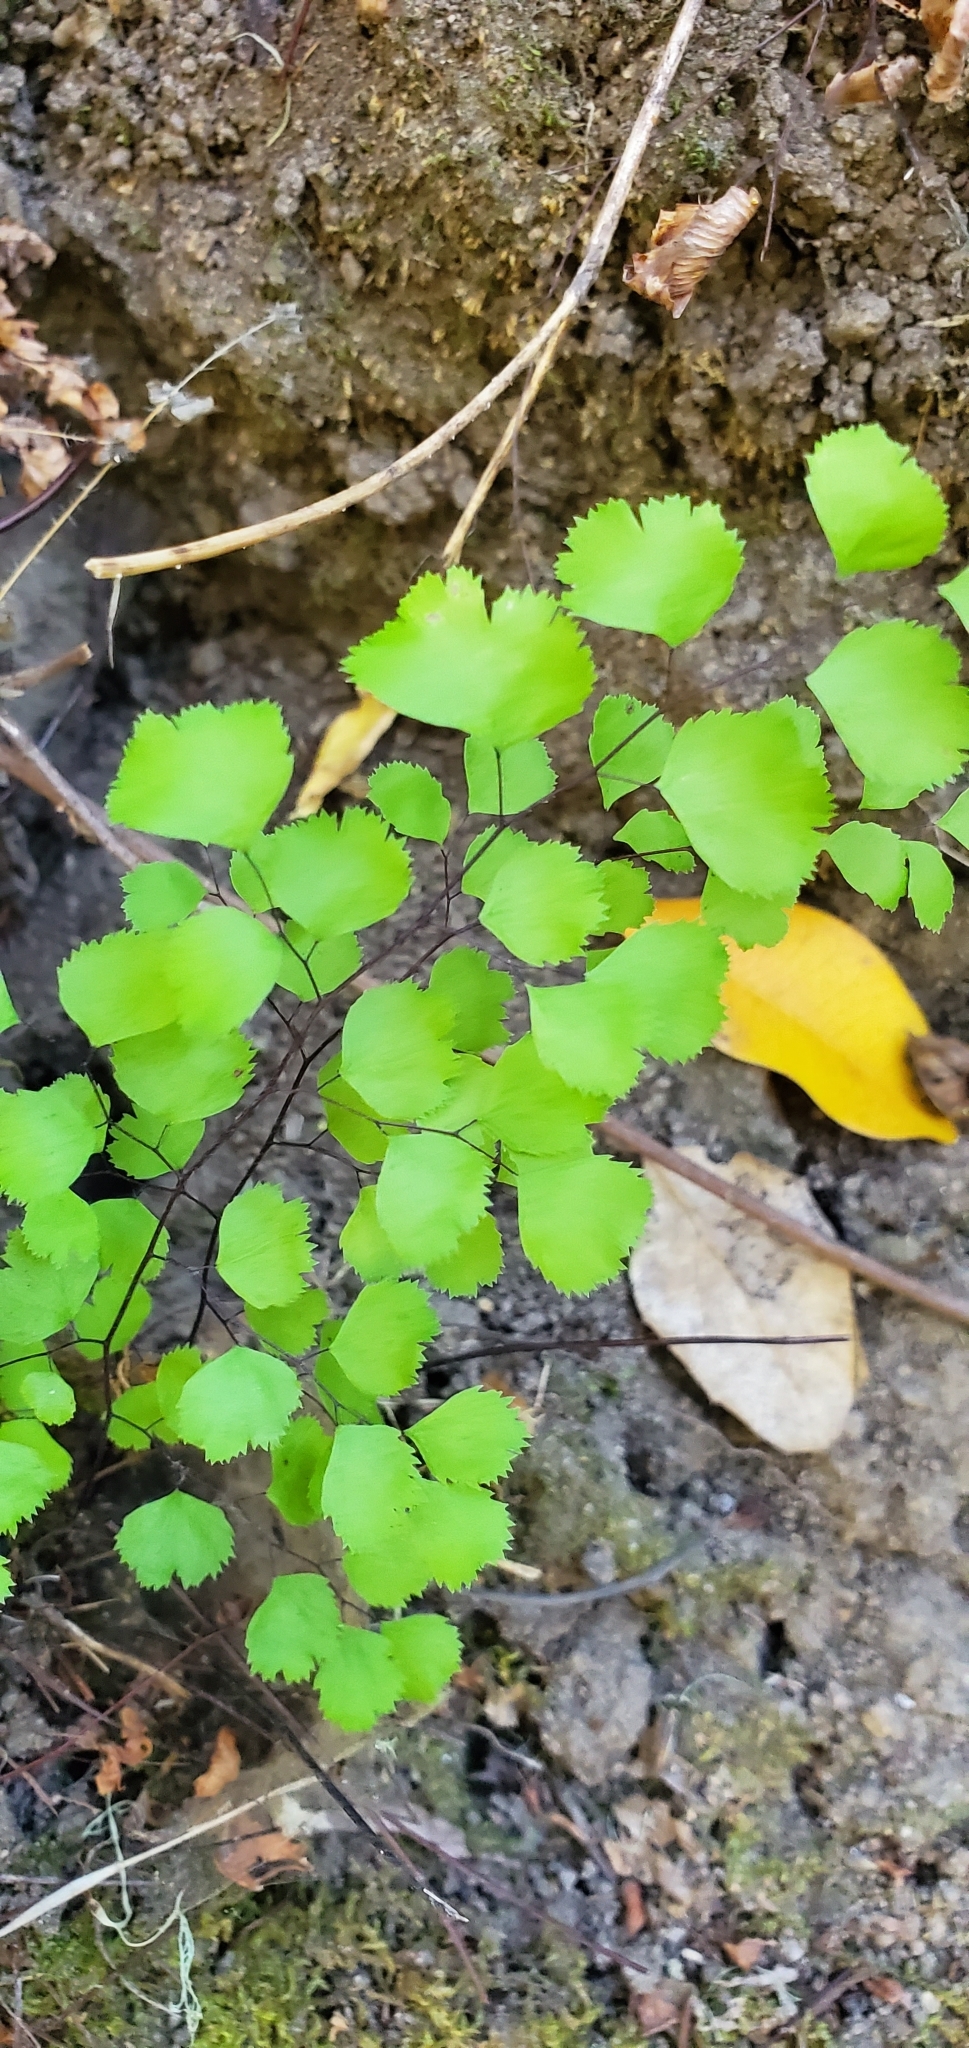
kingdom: Plantae
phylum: Tracheophyta
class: Polypodiopsida
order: Polypodiales
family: Pteridaceae
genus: Adiantum
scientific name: Adiantum jordanii
